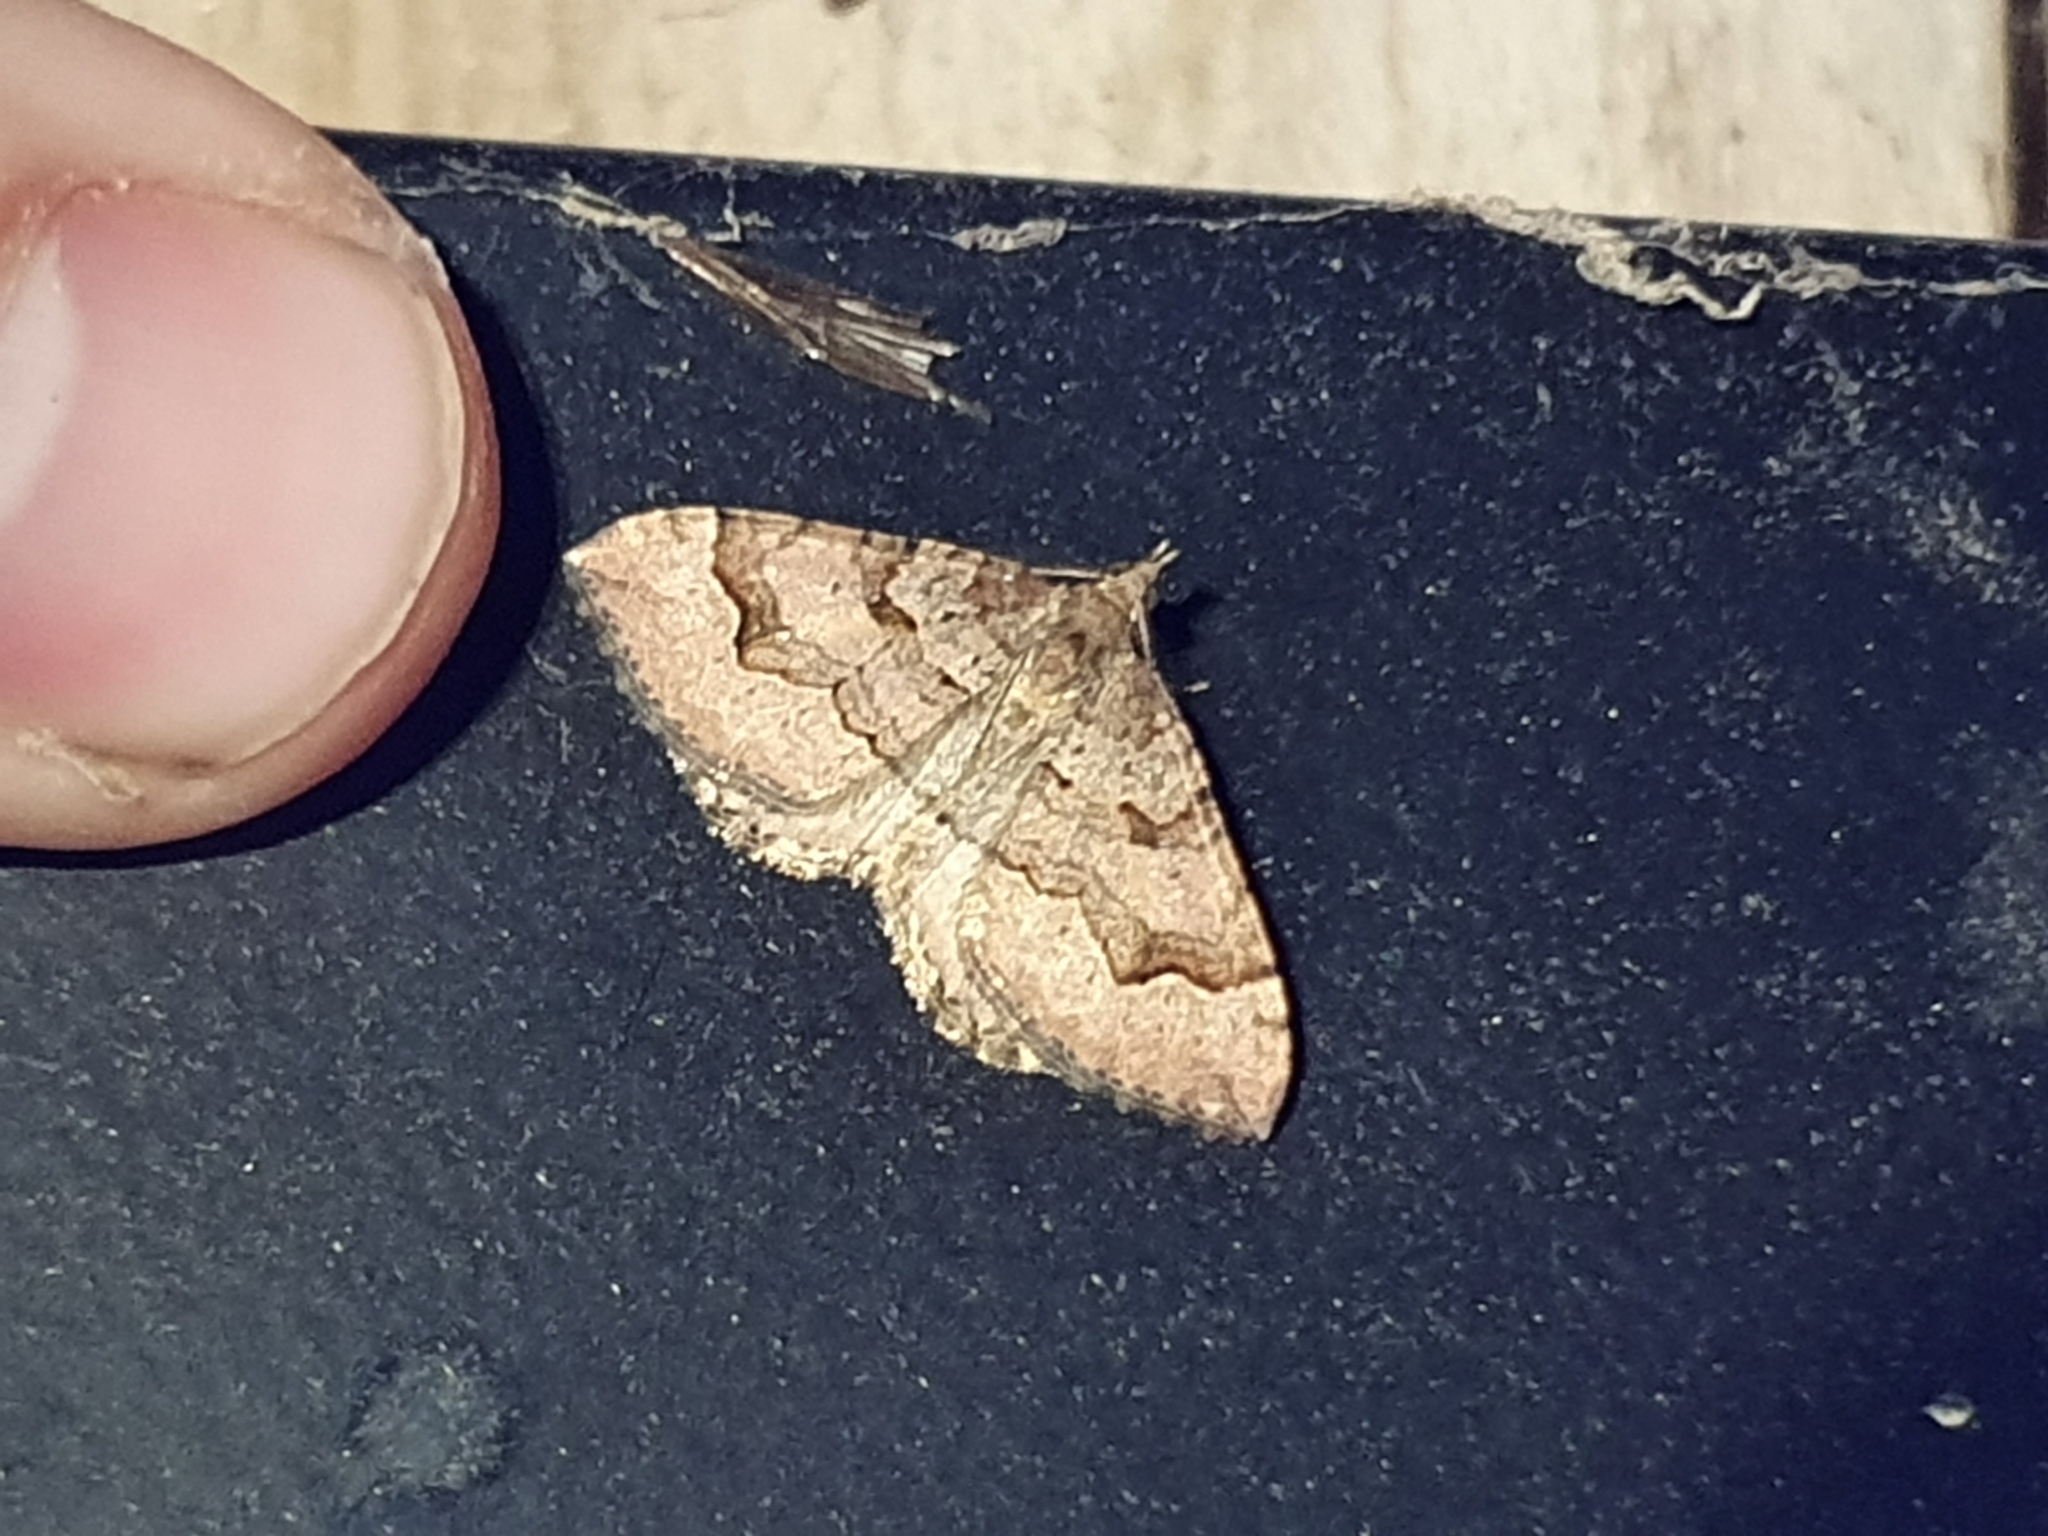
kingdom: Animalia
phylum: Arthropoda
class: Insecta
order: Lepidoptera
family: Geometridae
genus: Epyaxa
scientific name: Epyaxa rosearia
